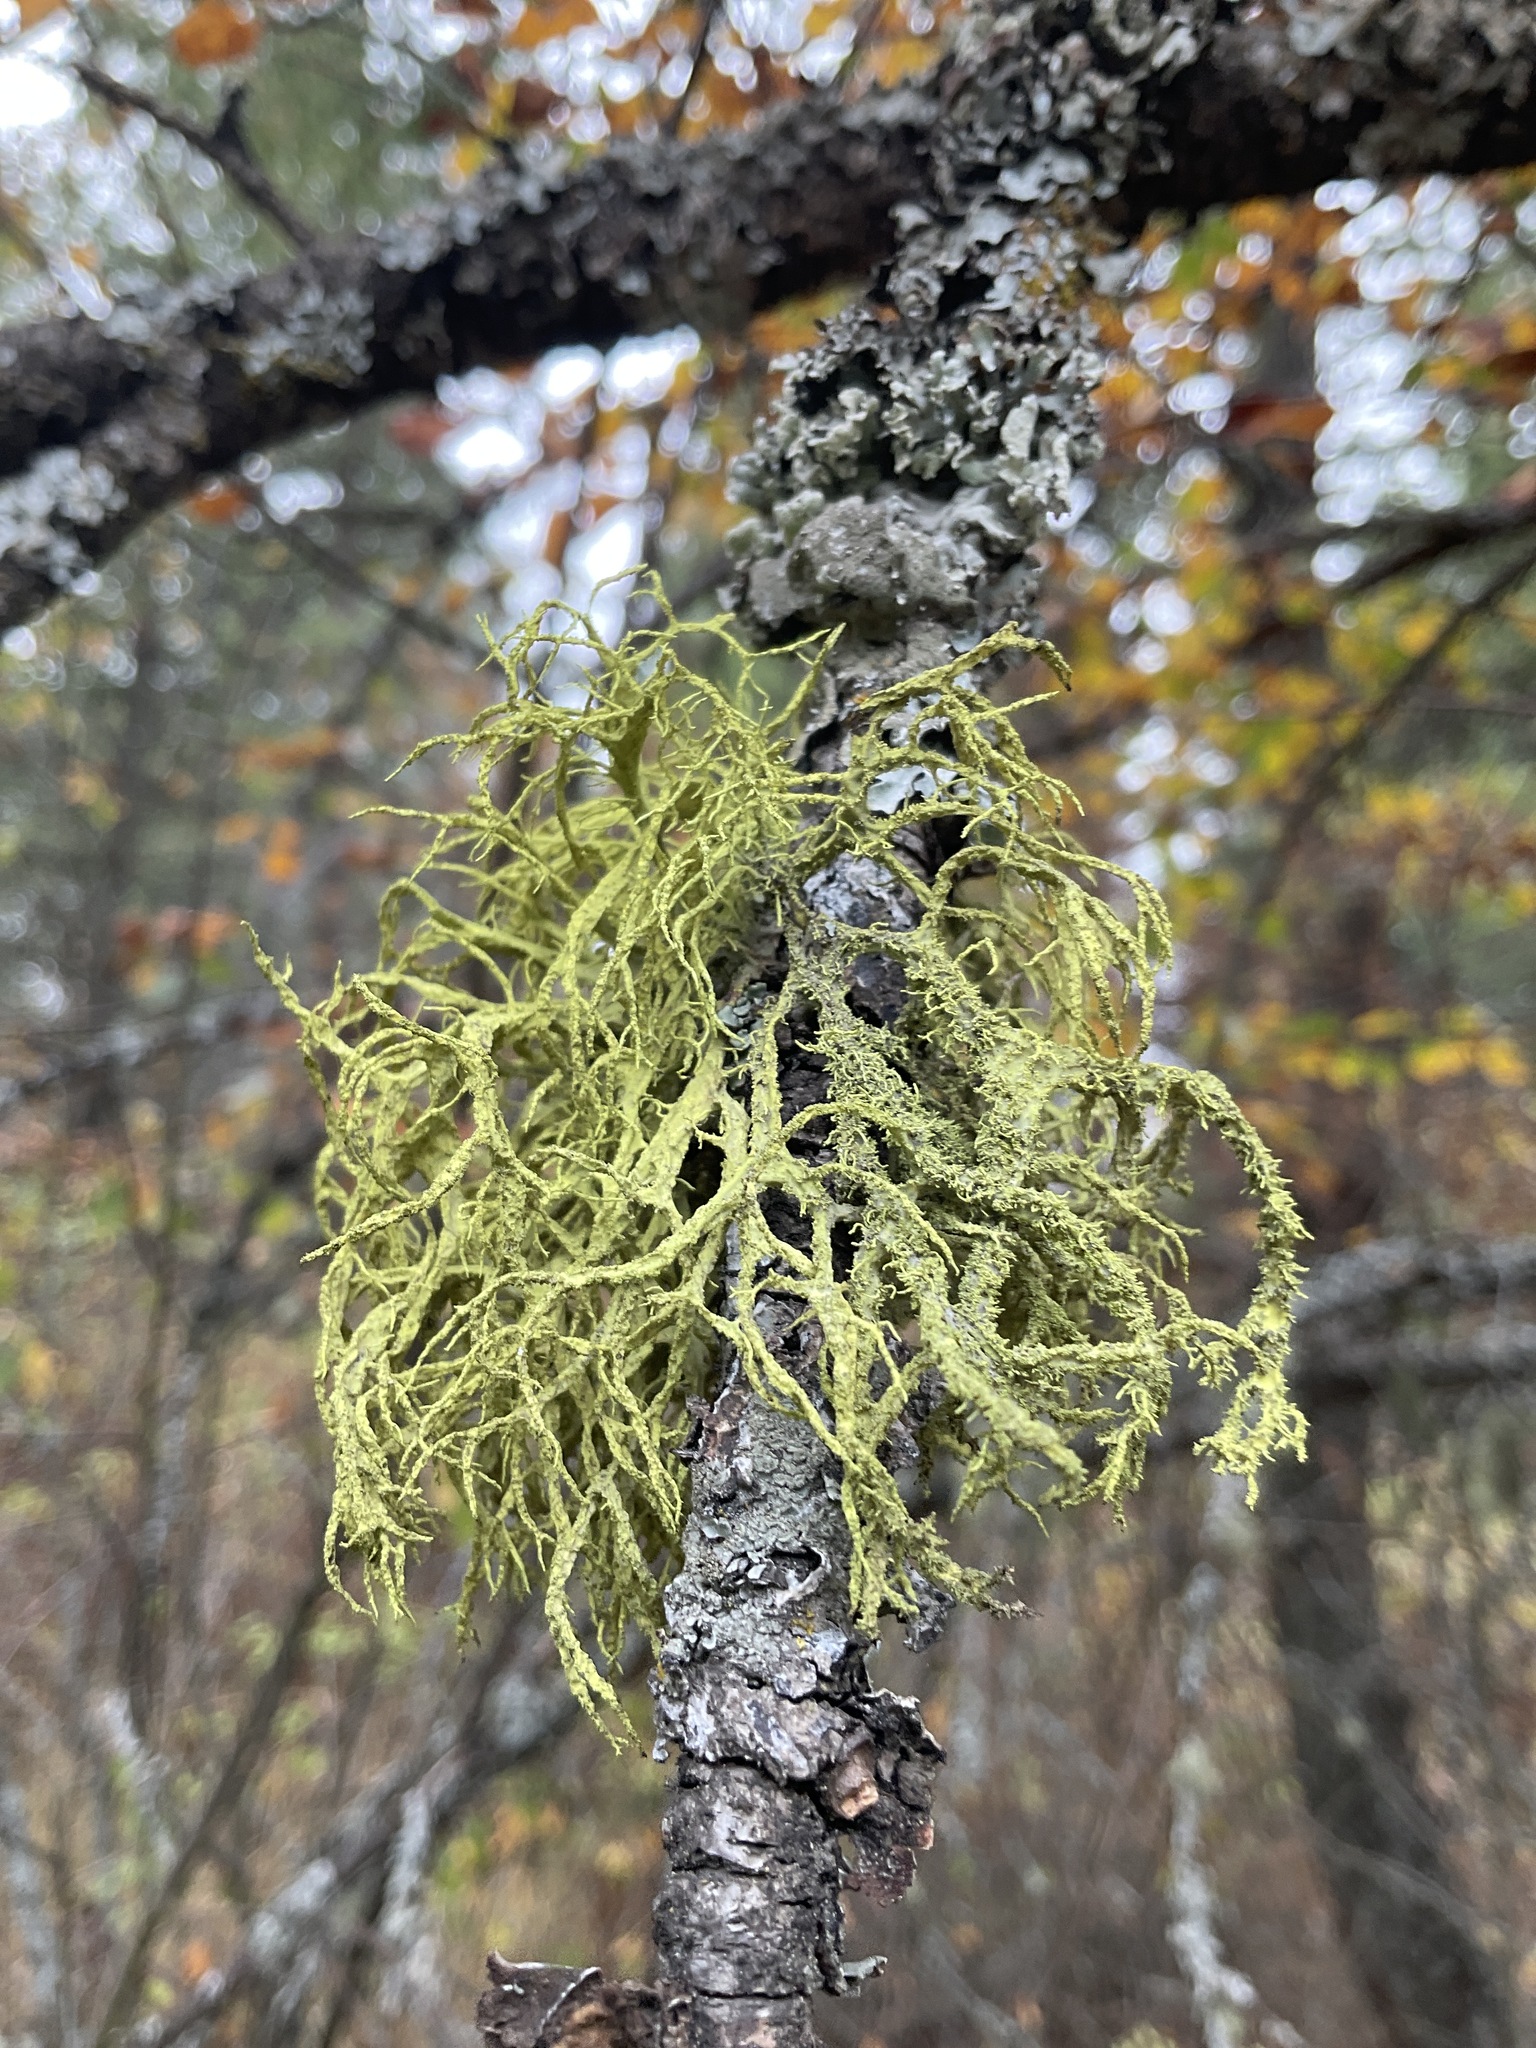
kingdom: Fungi
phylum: Ascomycota
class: Lecanoromycetes
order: Lecanorales
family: Parmeliaceae
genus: Letharia
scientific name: Letharia vulpina
